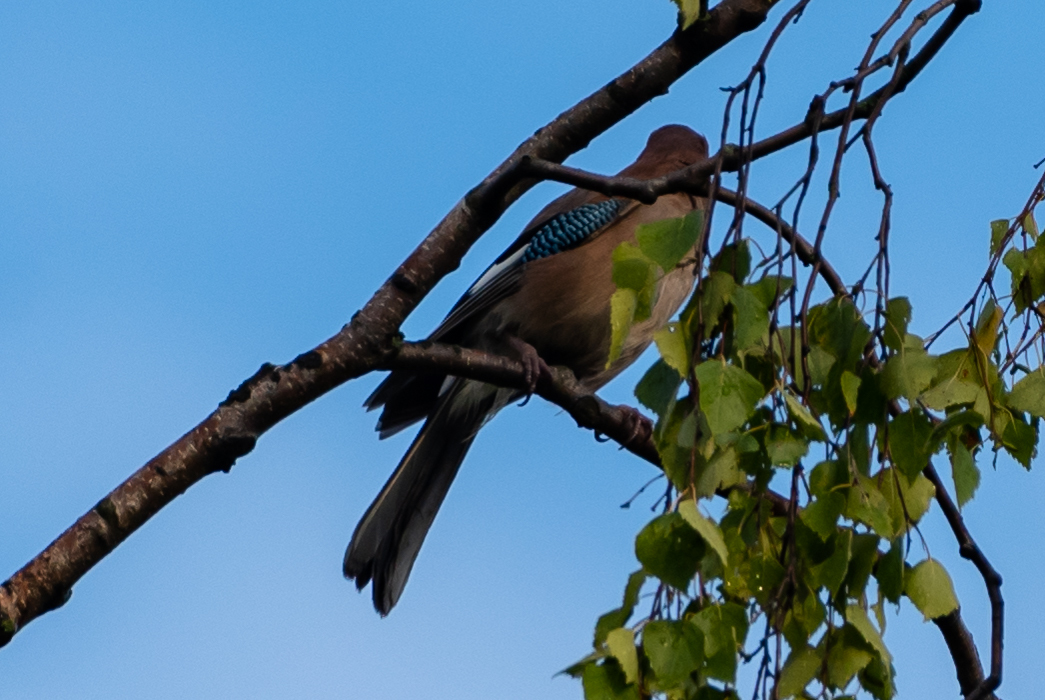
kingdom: Animalia
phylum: Chordata
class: Aves
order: Passeriformes
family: Corvidae
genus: Garrulus
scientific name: Garrulus glandarius
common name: Eurasian jay
